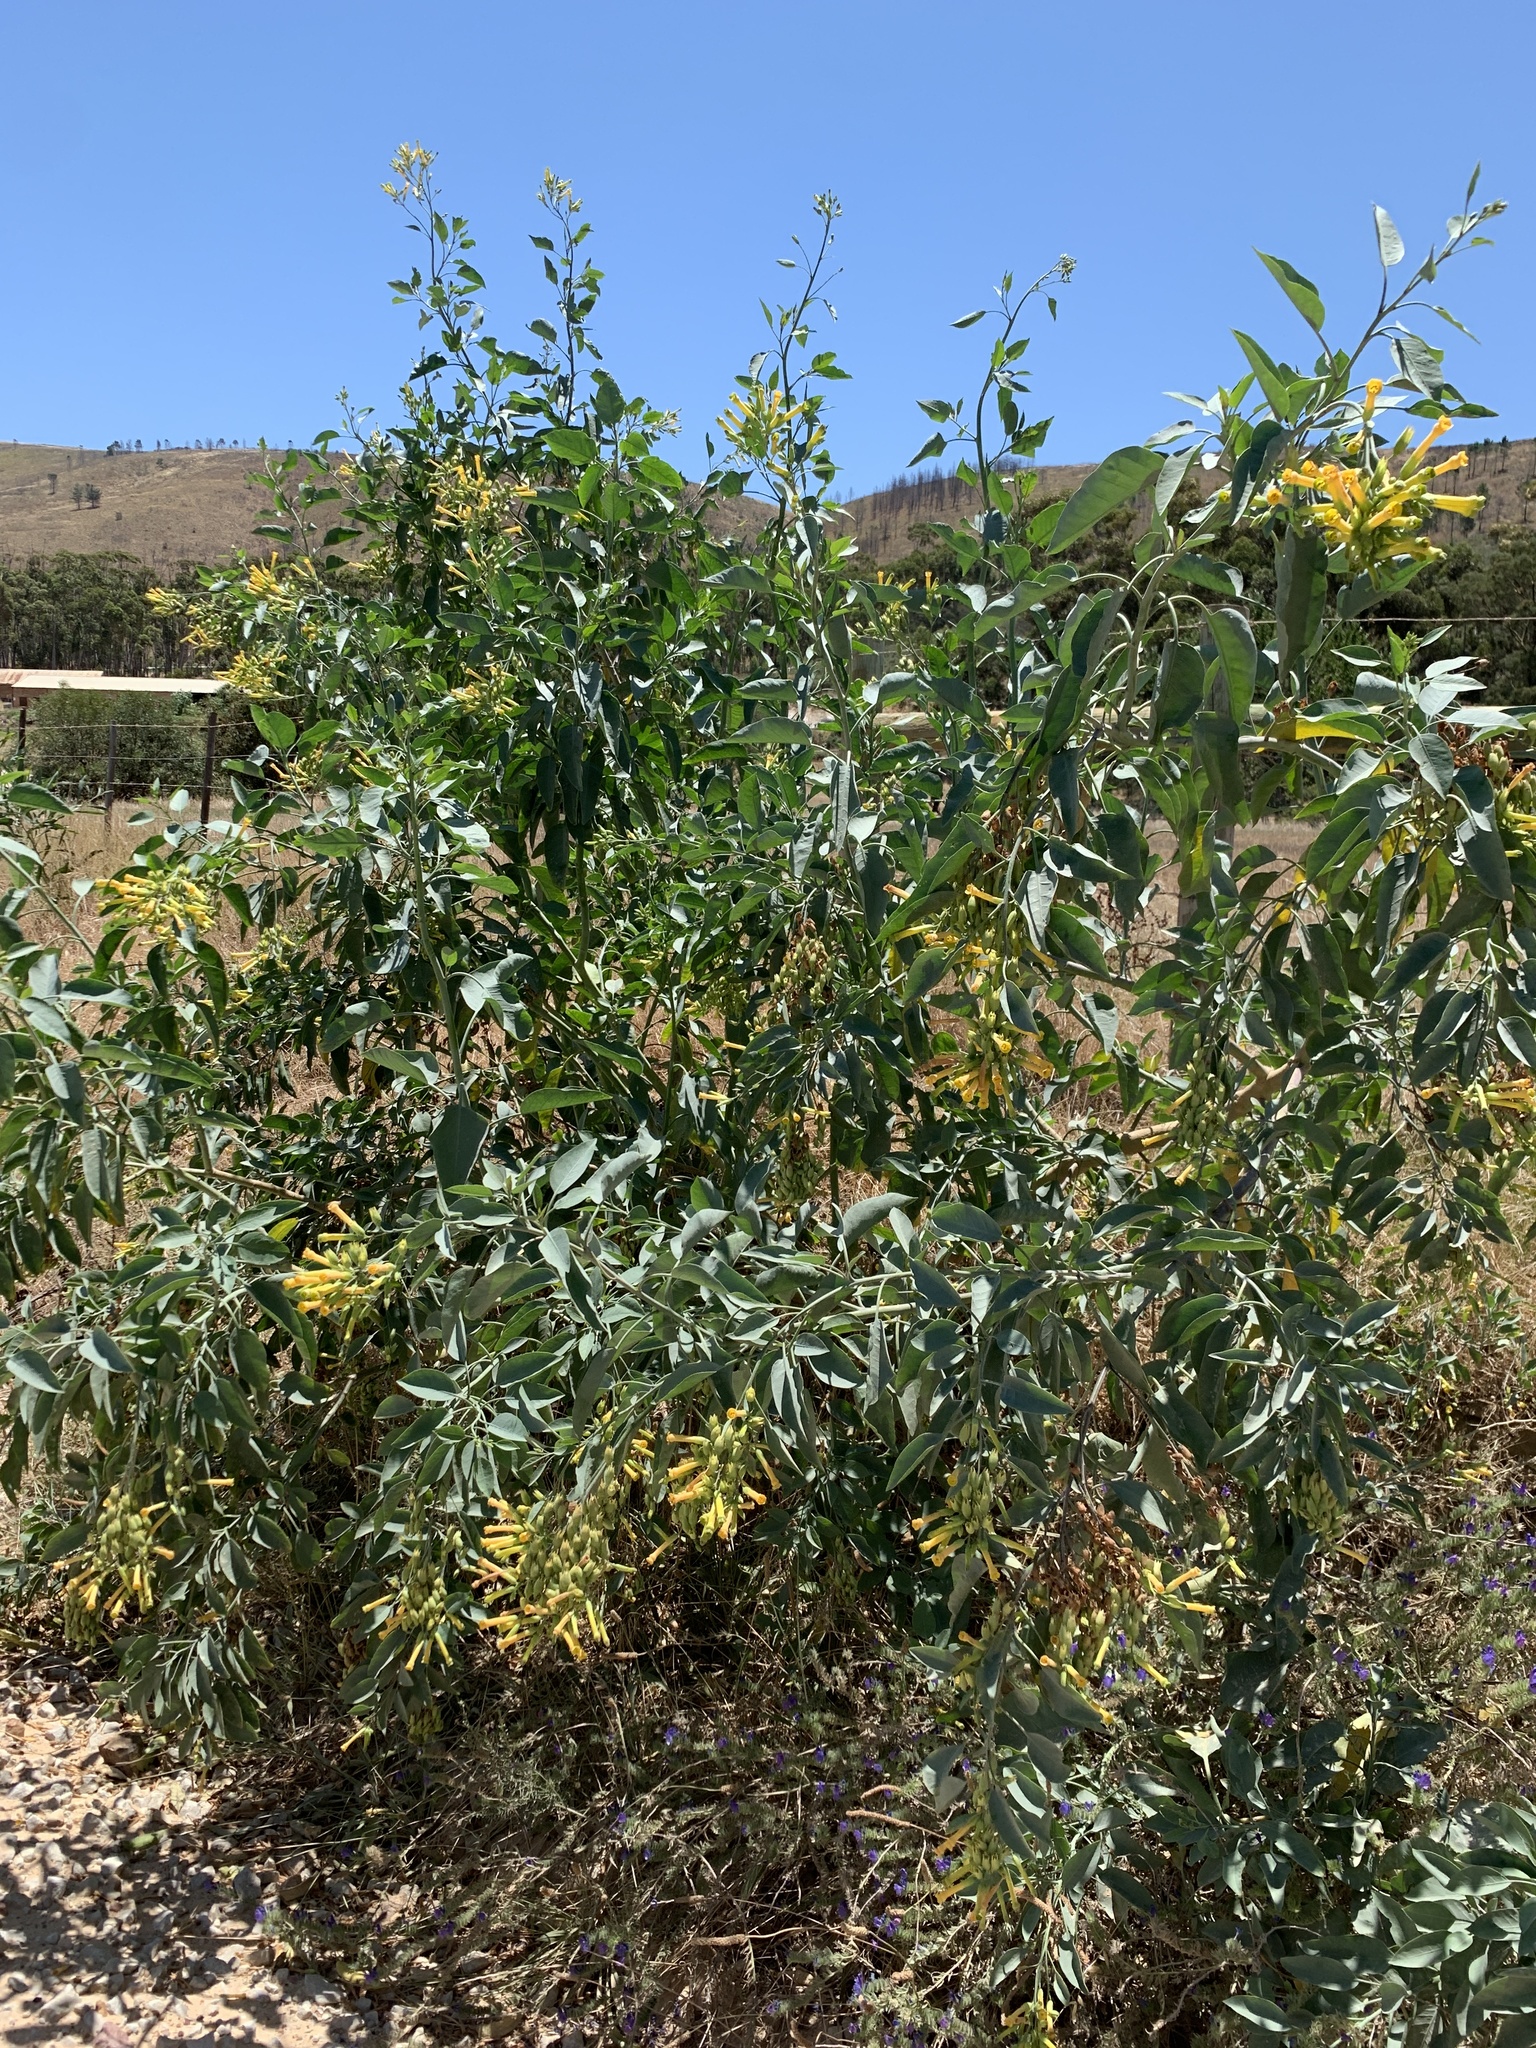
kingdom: Plantae
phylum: Tracheophyta
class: Magnoliopsida
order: Solanales
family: Solanaceae
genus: Nicotiana
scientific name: Nicotiana glauca
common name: Tree tobacco
